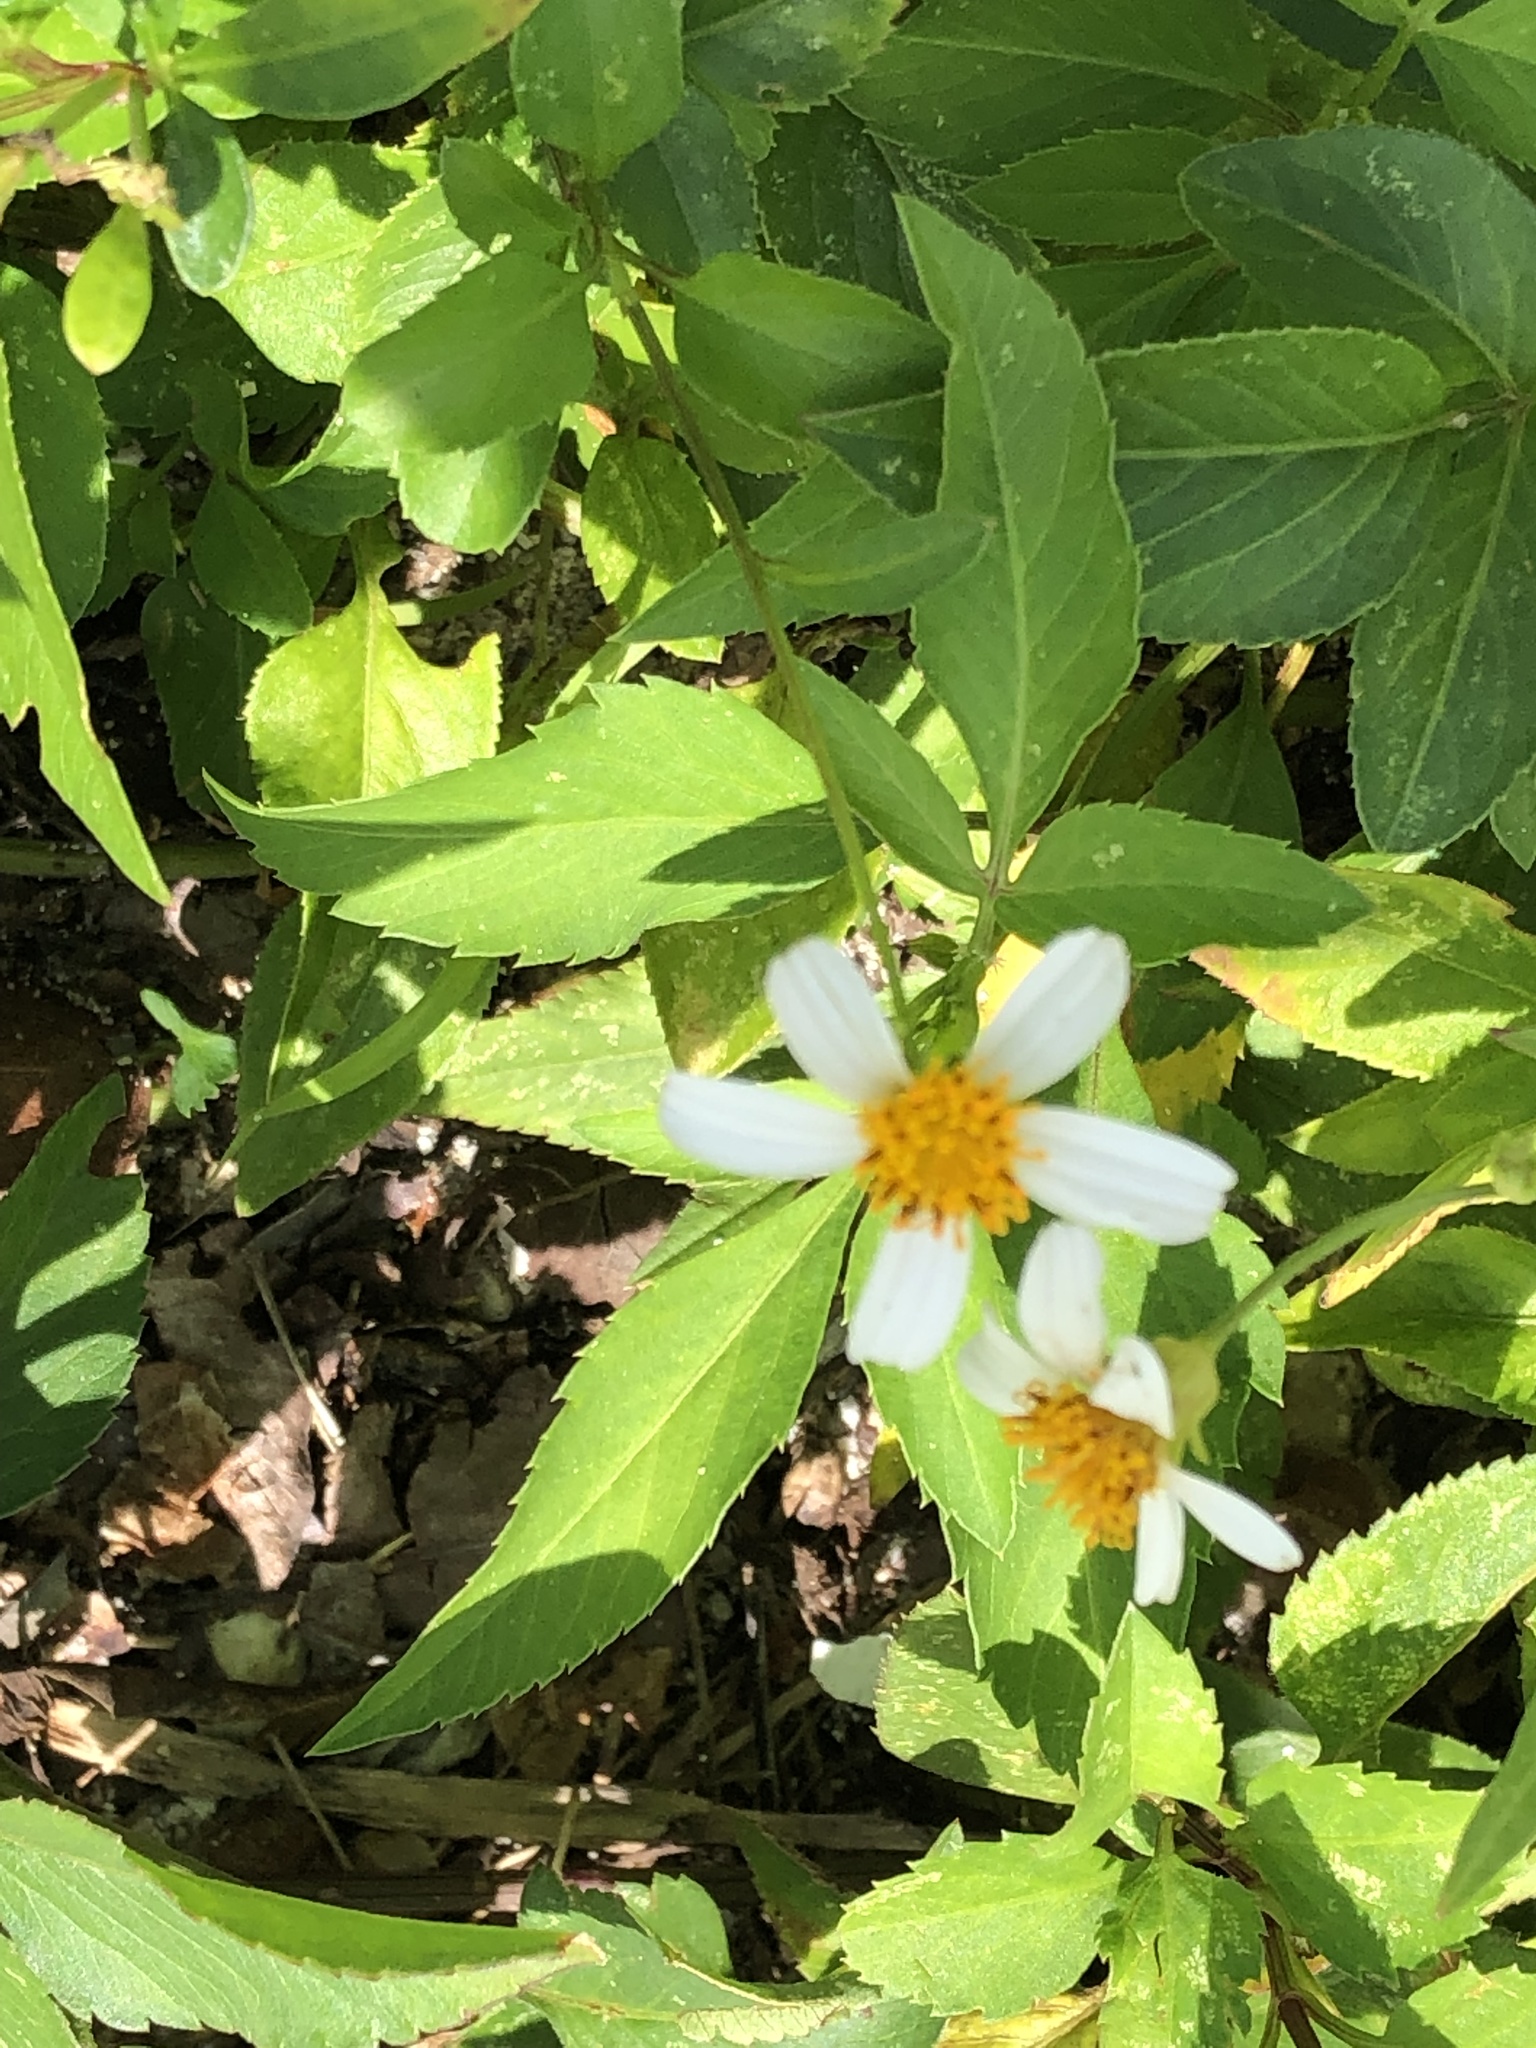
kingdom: Plantae
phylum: Tracheophyta
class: Magnoliopsida
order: Asterales
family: Asteraceae
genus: Bidens
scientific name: Bidens alba
